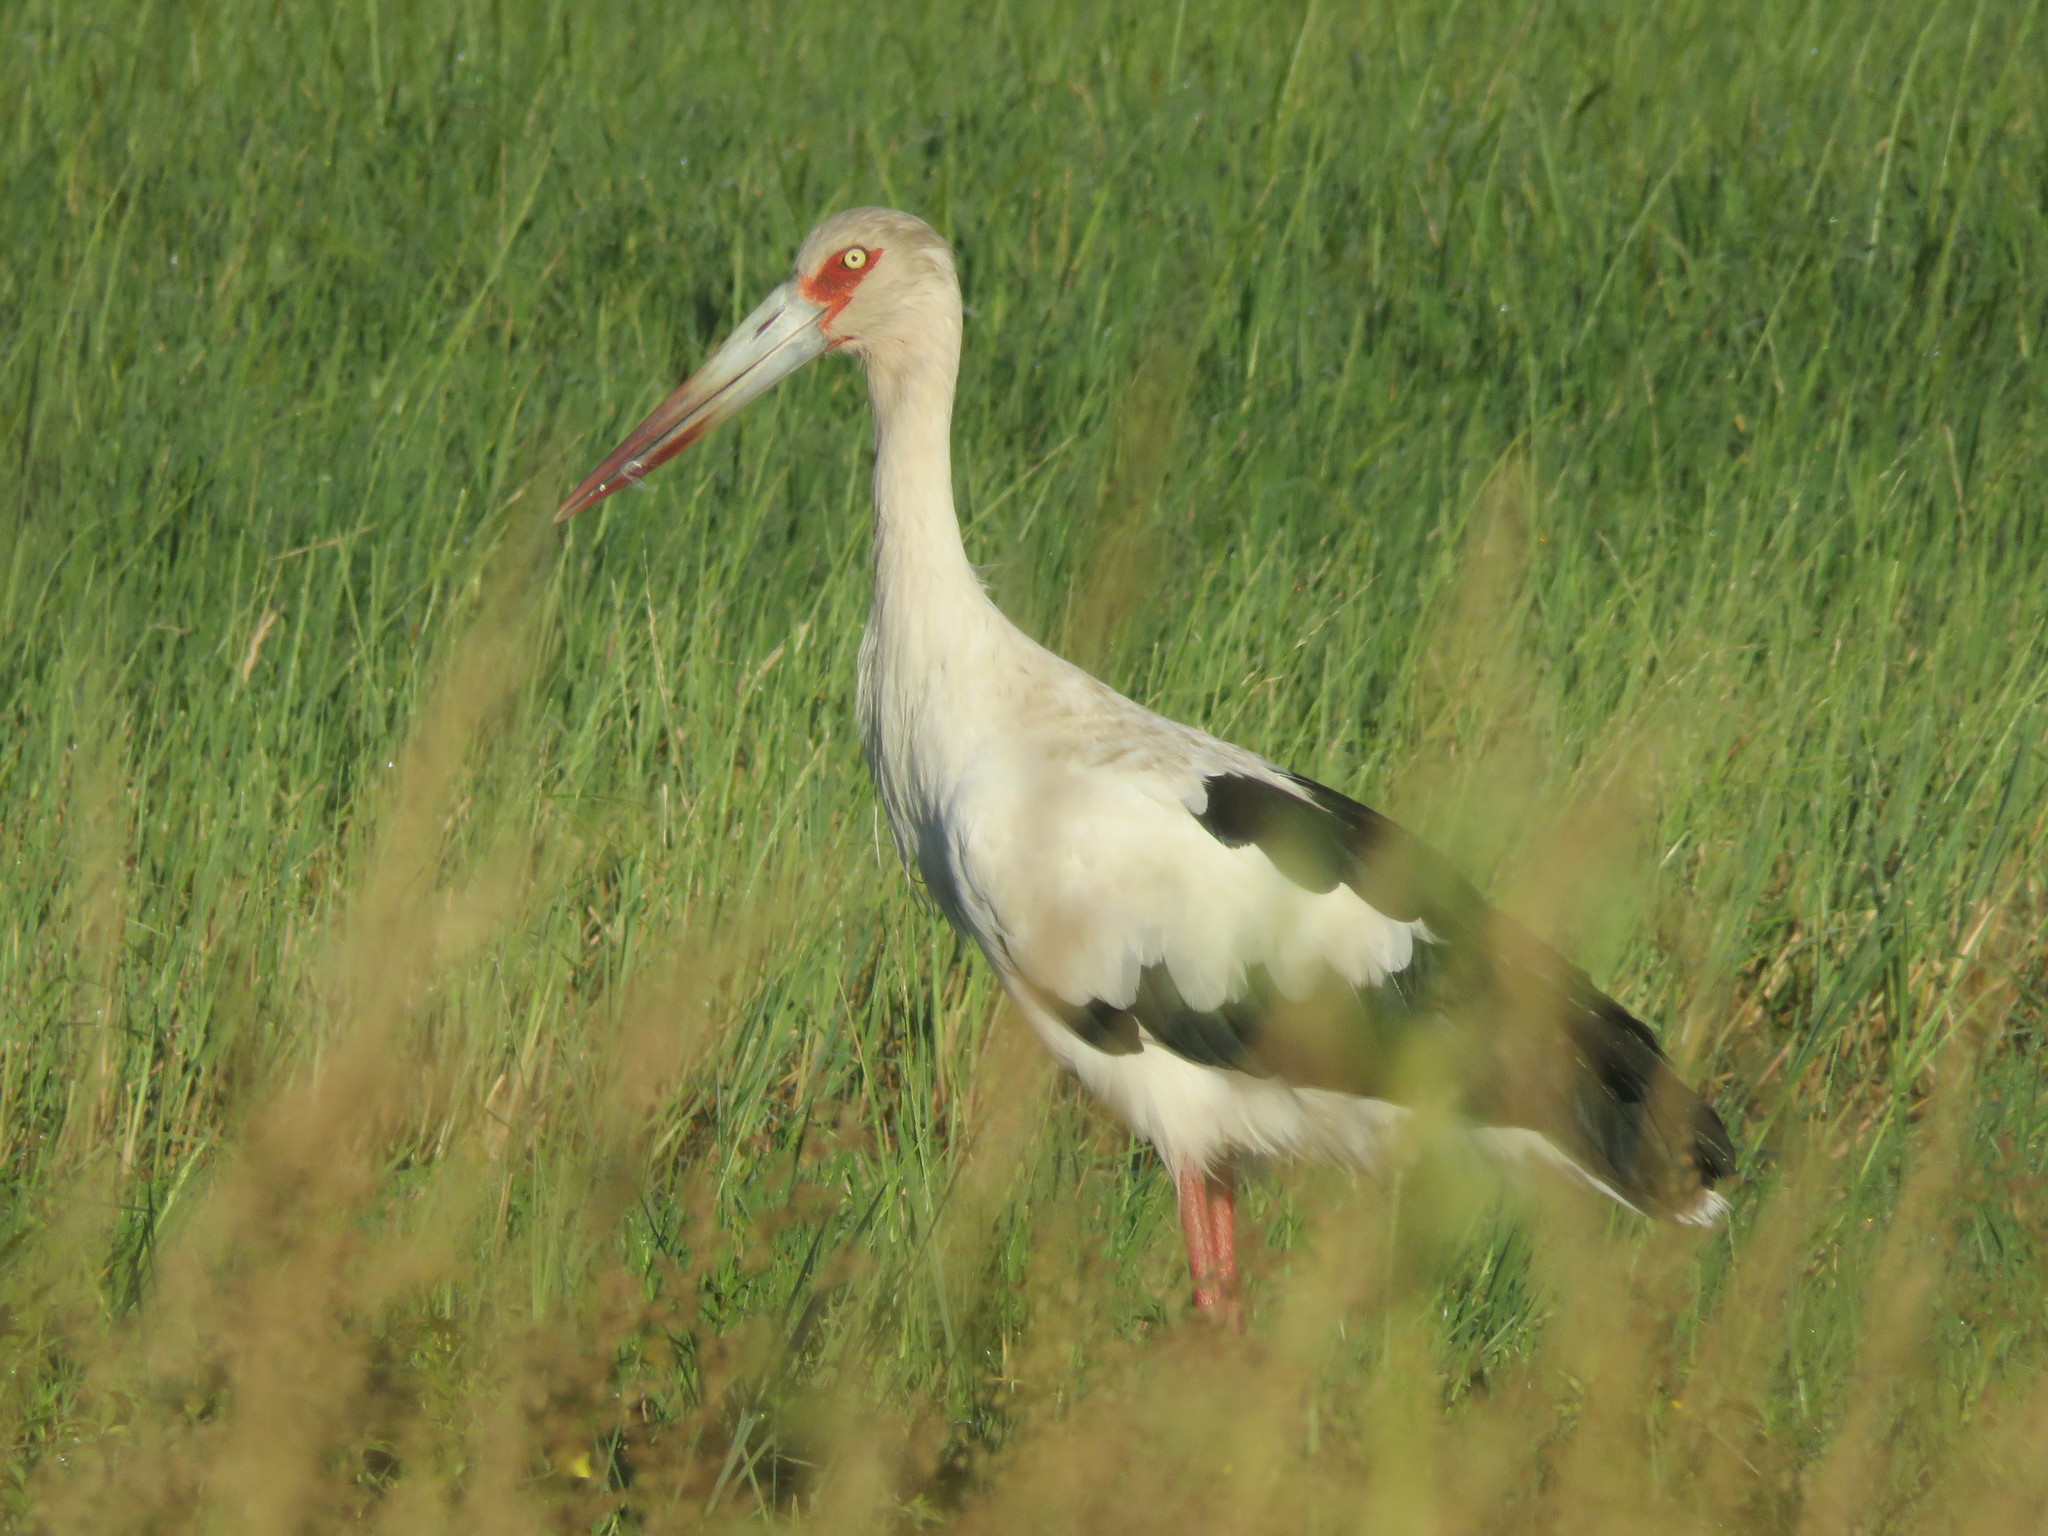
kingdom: Animalia
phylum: Chordata
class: Aves
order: Ciconiiformes
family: Ciconiidae
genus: Ciconia
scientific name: Ciconia maguari
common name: Maguari stork
